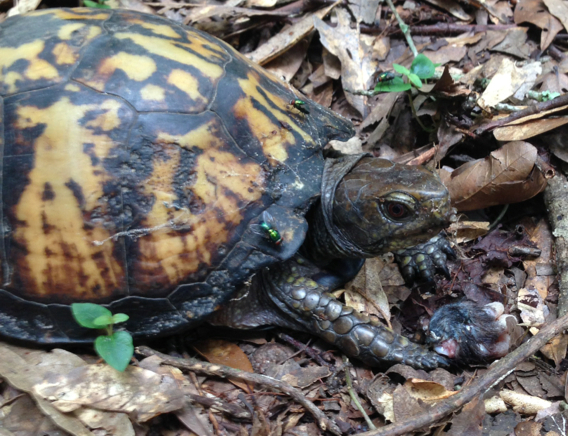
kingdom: Animalia
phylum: Chordata
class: Testudines
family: Emydidae
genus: Terrapene
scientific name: Terrapene carolina
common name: Common box turtle
